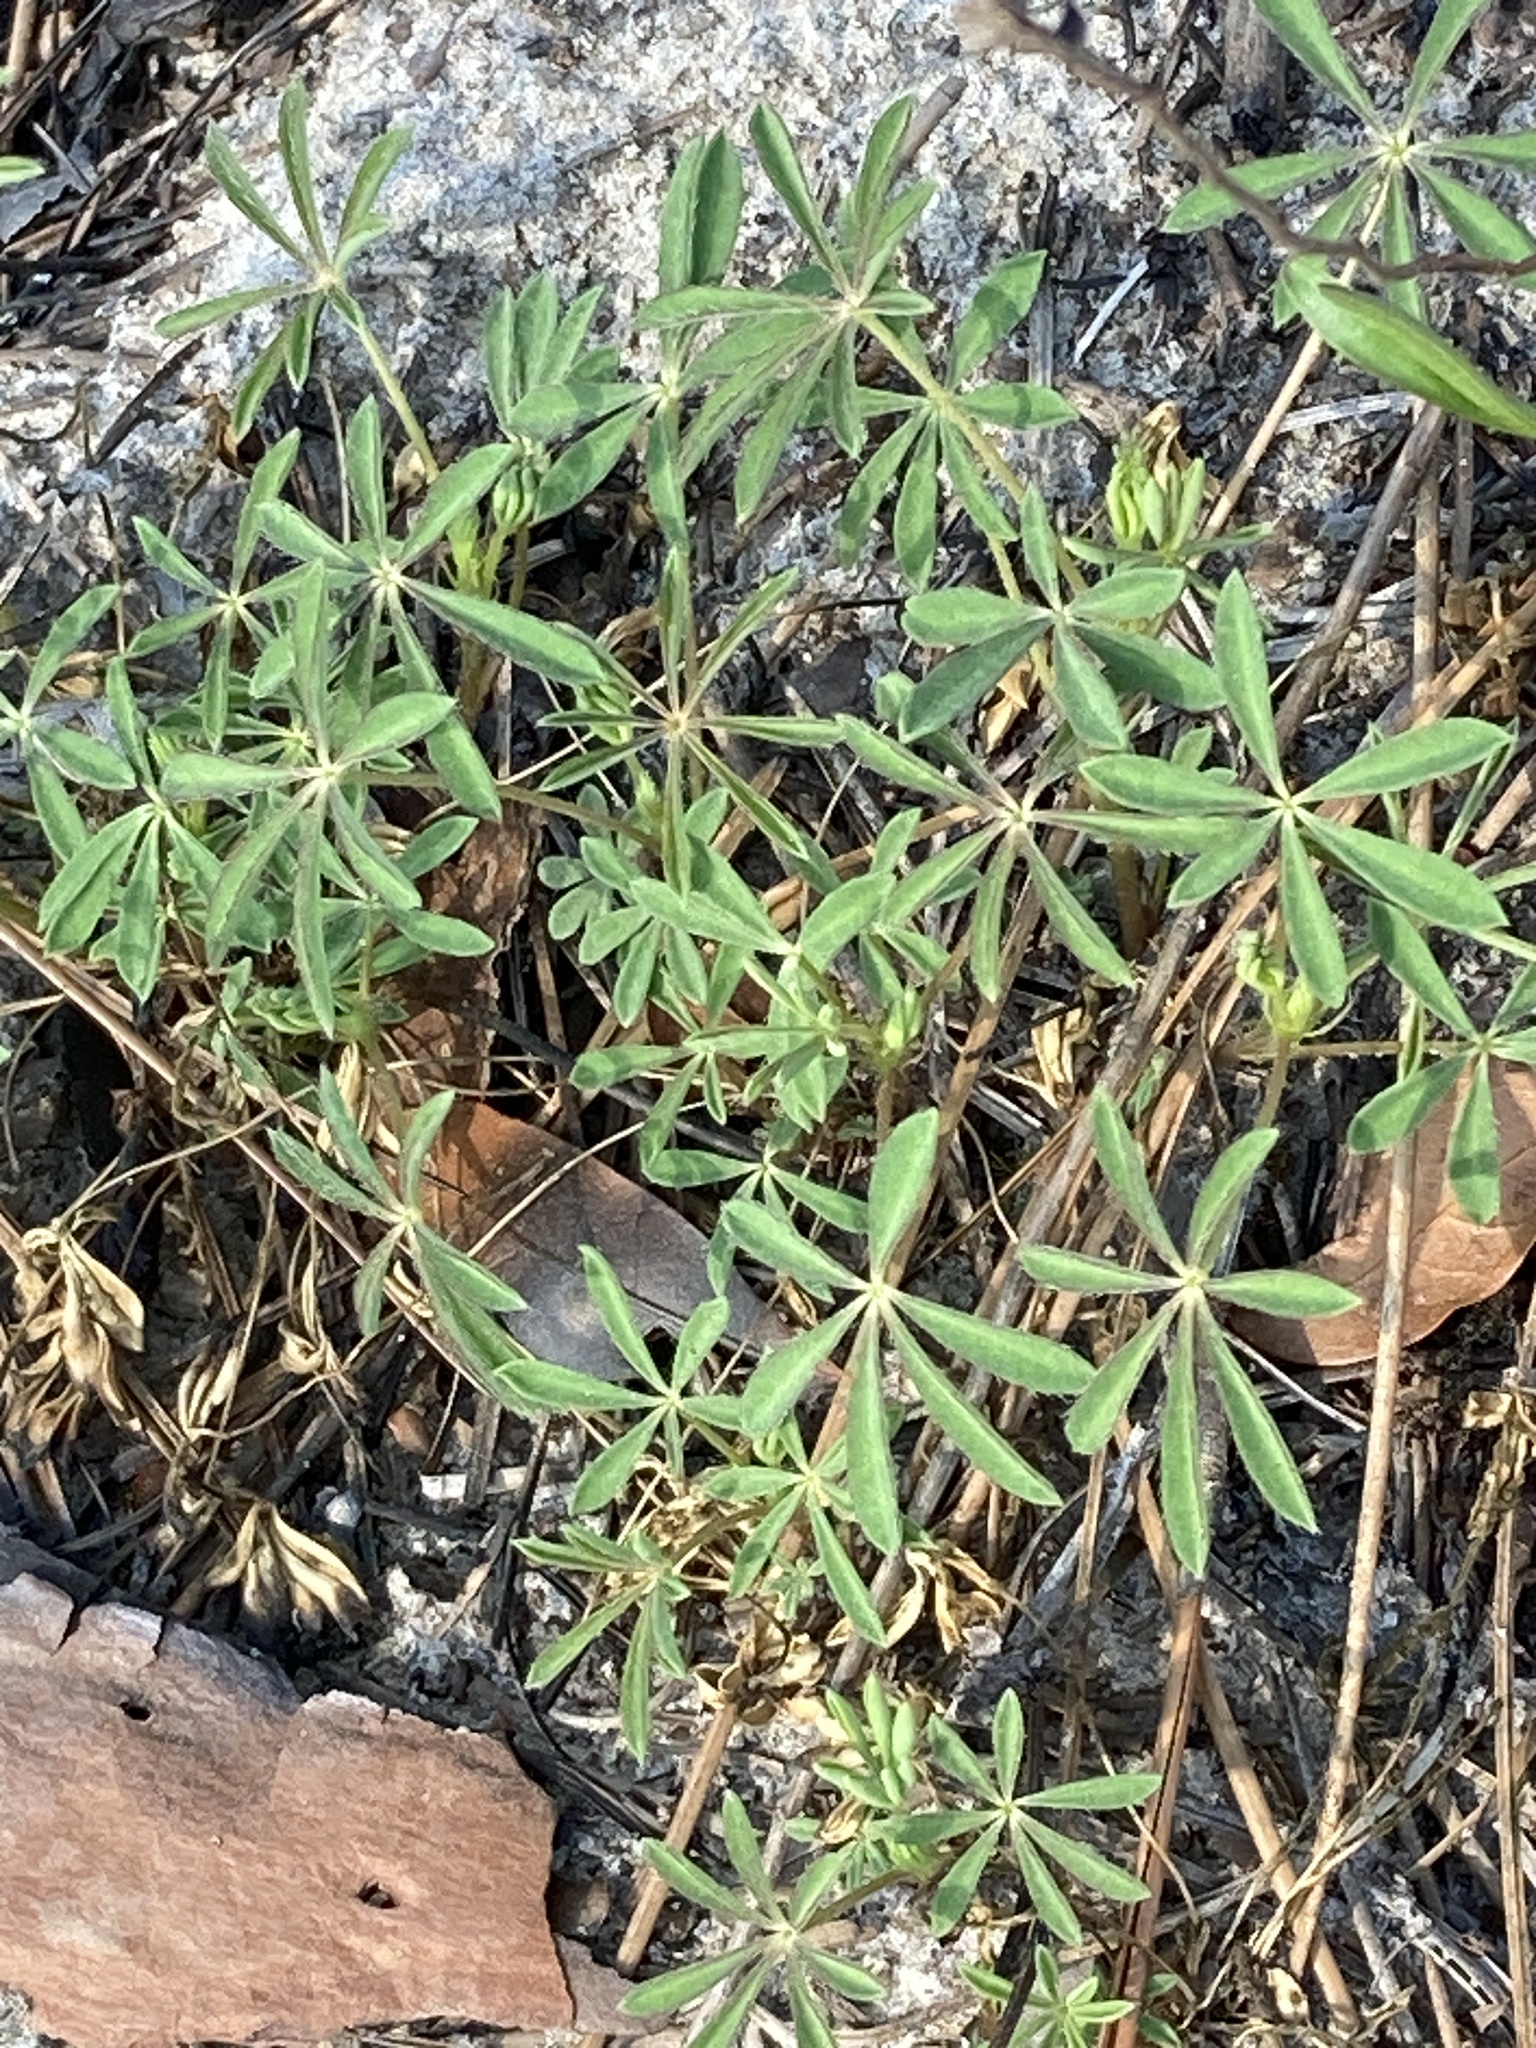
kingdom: Plantae
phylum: Tracheophyta
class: Magnoliopsida
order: Fabales
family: Fabaceae
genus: Lupinus
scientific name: Lupinus perennis
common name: Sundial lupine
